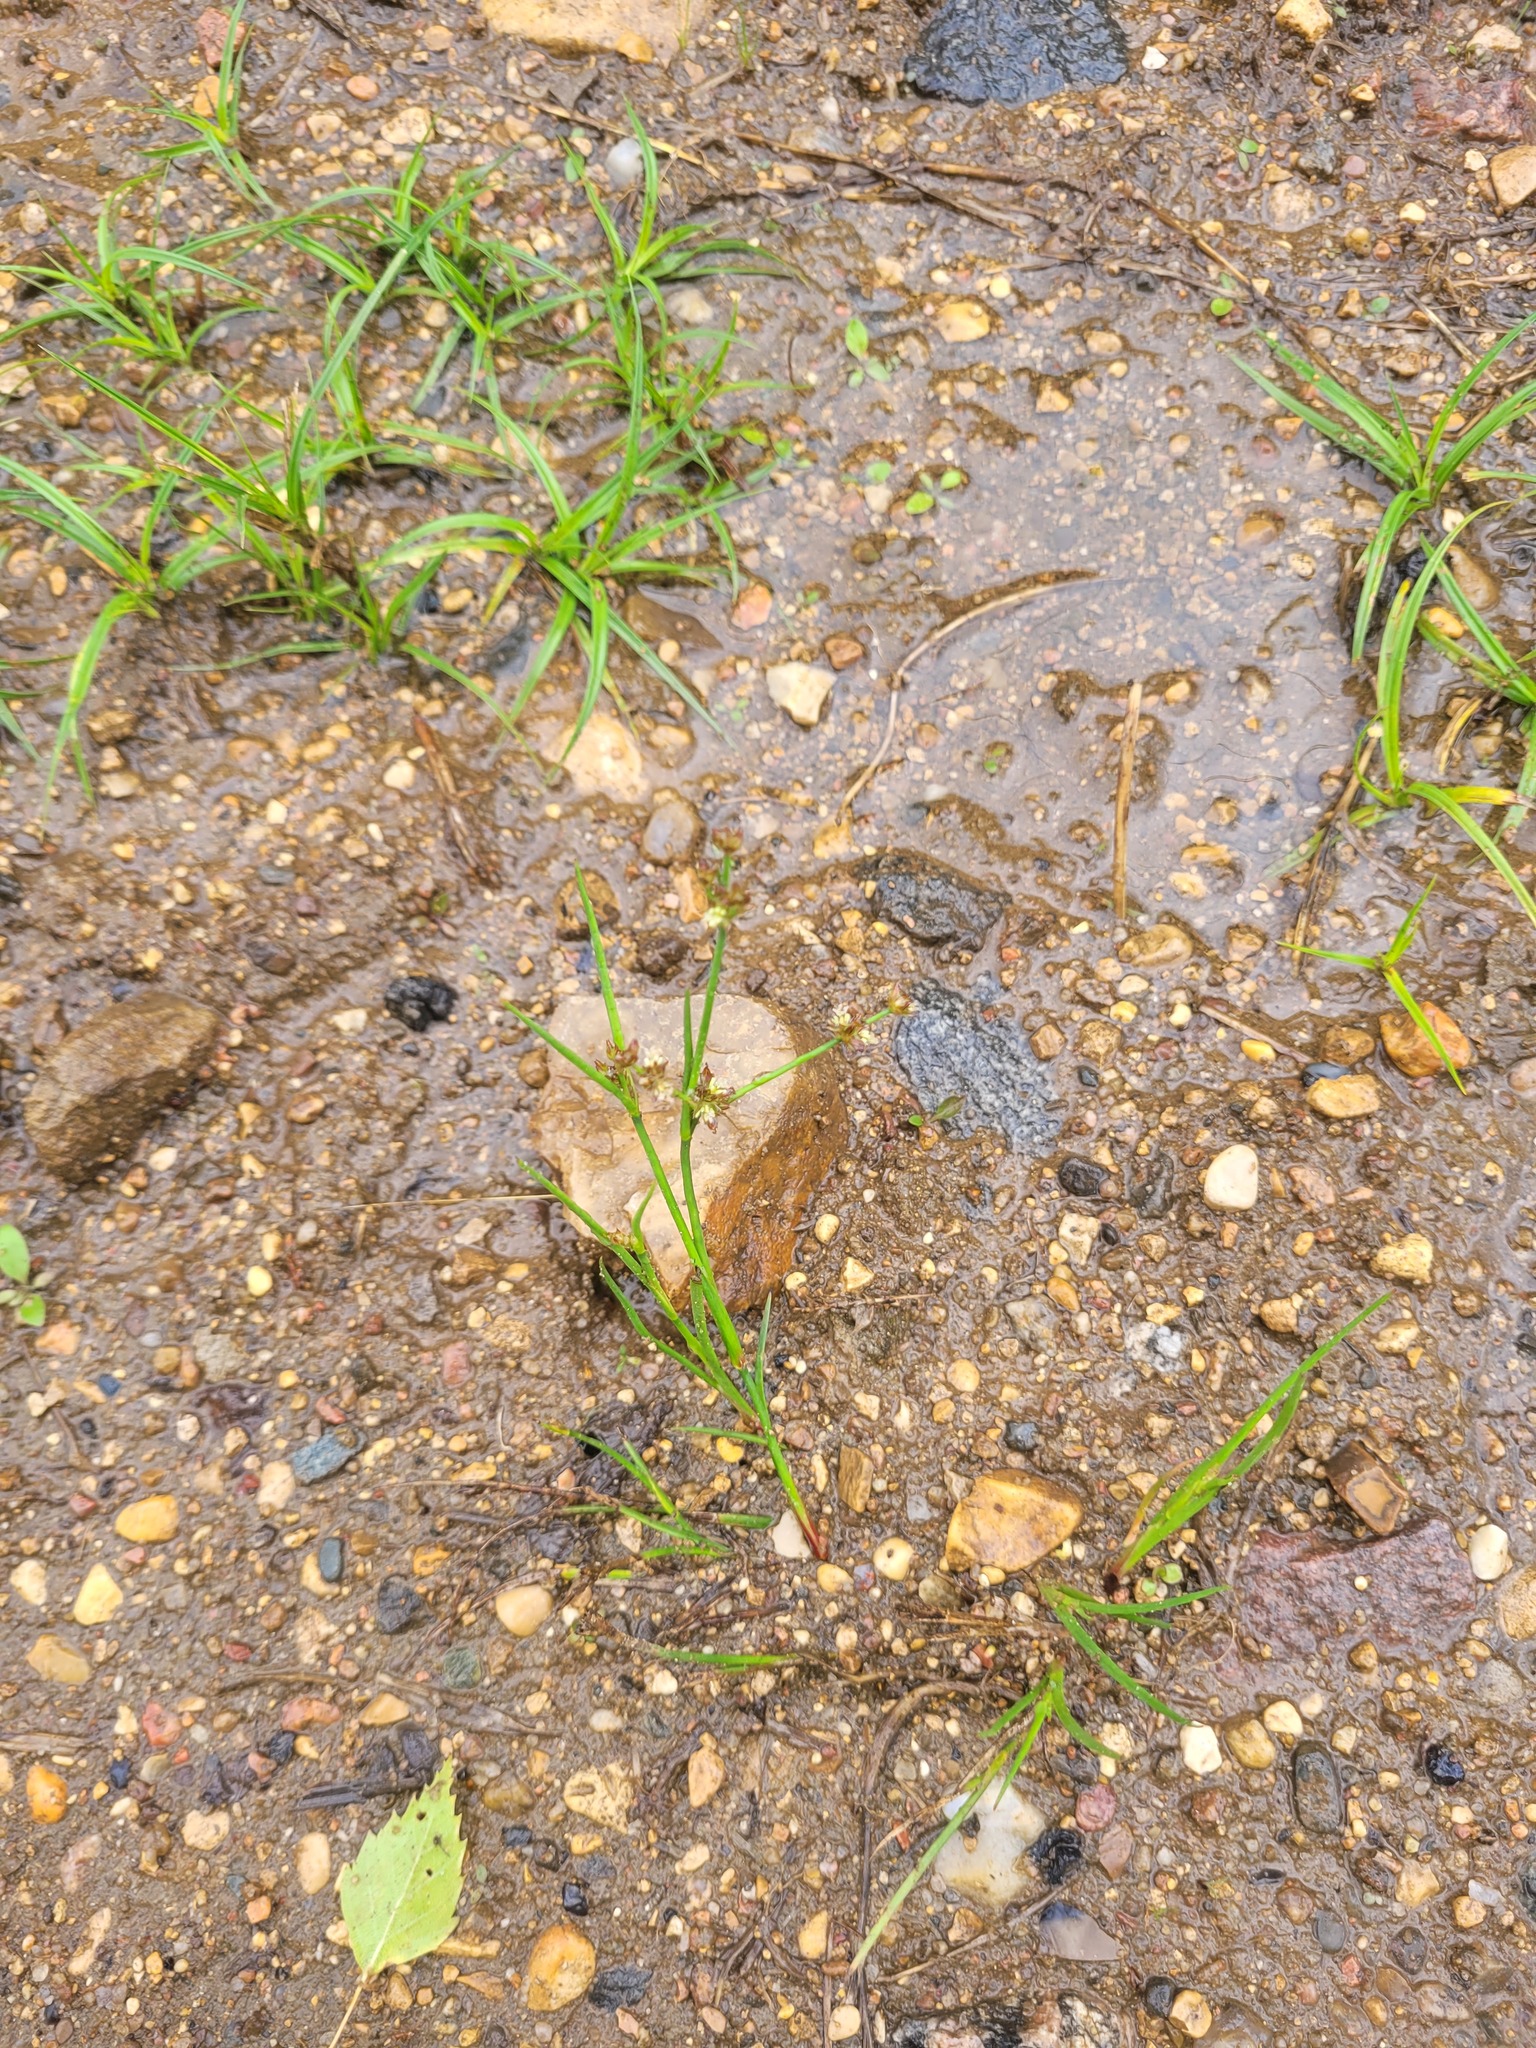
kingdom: Plantae
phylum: Tracheophyta
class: Liliopsida
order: Poales
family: Juncaceae
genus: Juncus
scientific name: Juncus articulatus
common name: Jointed rush
